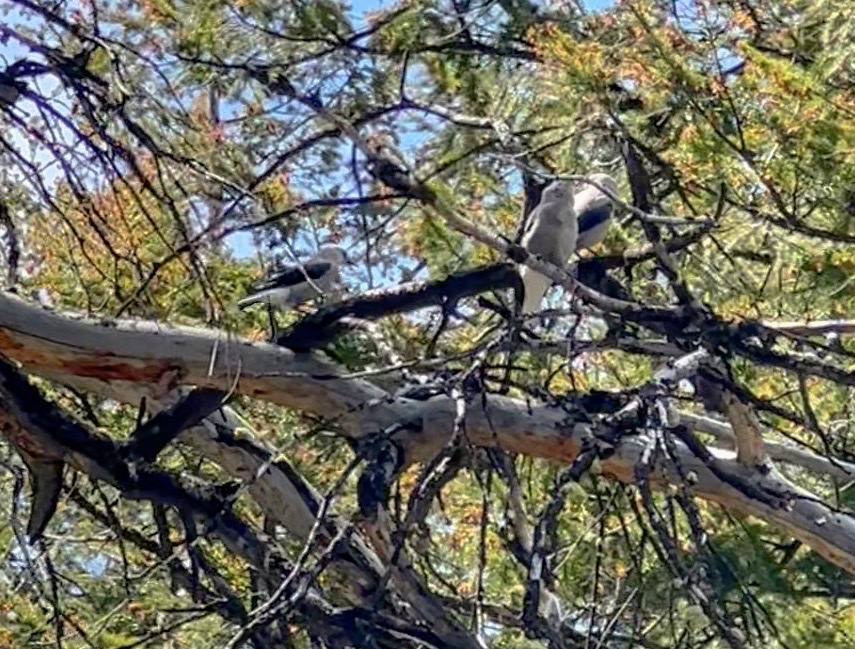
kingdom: Animalia
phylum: Chordata
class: Aves
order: Passeriformes
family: Corvidae
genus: Nucifraga
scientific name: Nucifraga columbiana
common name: Clark's nutcracker
